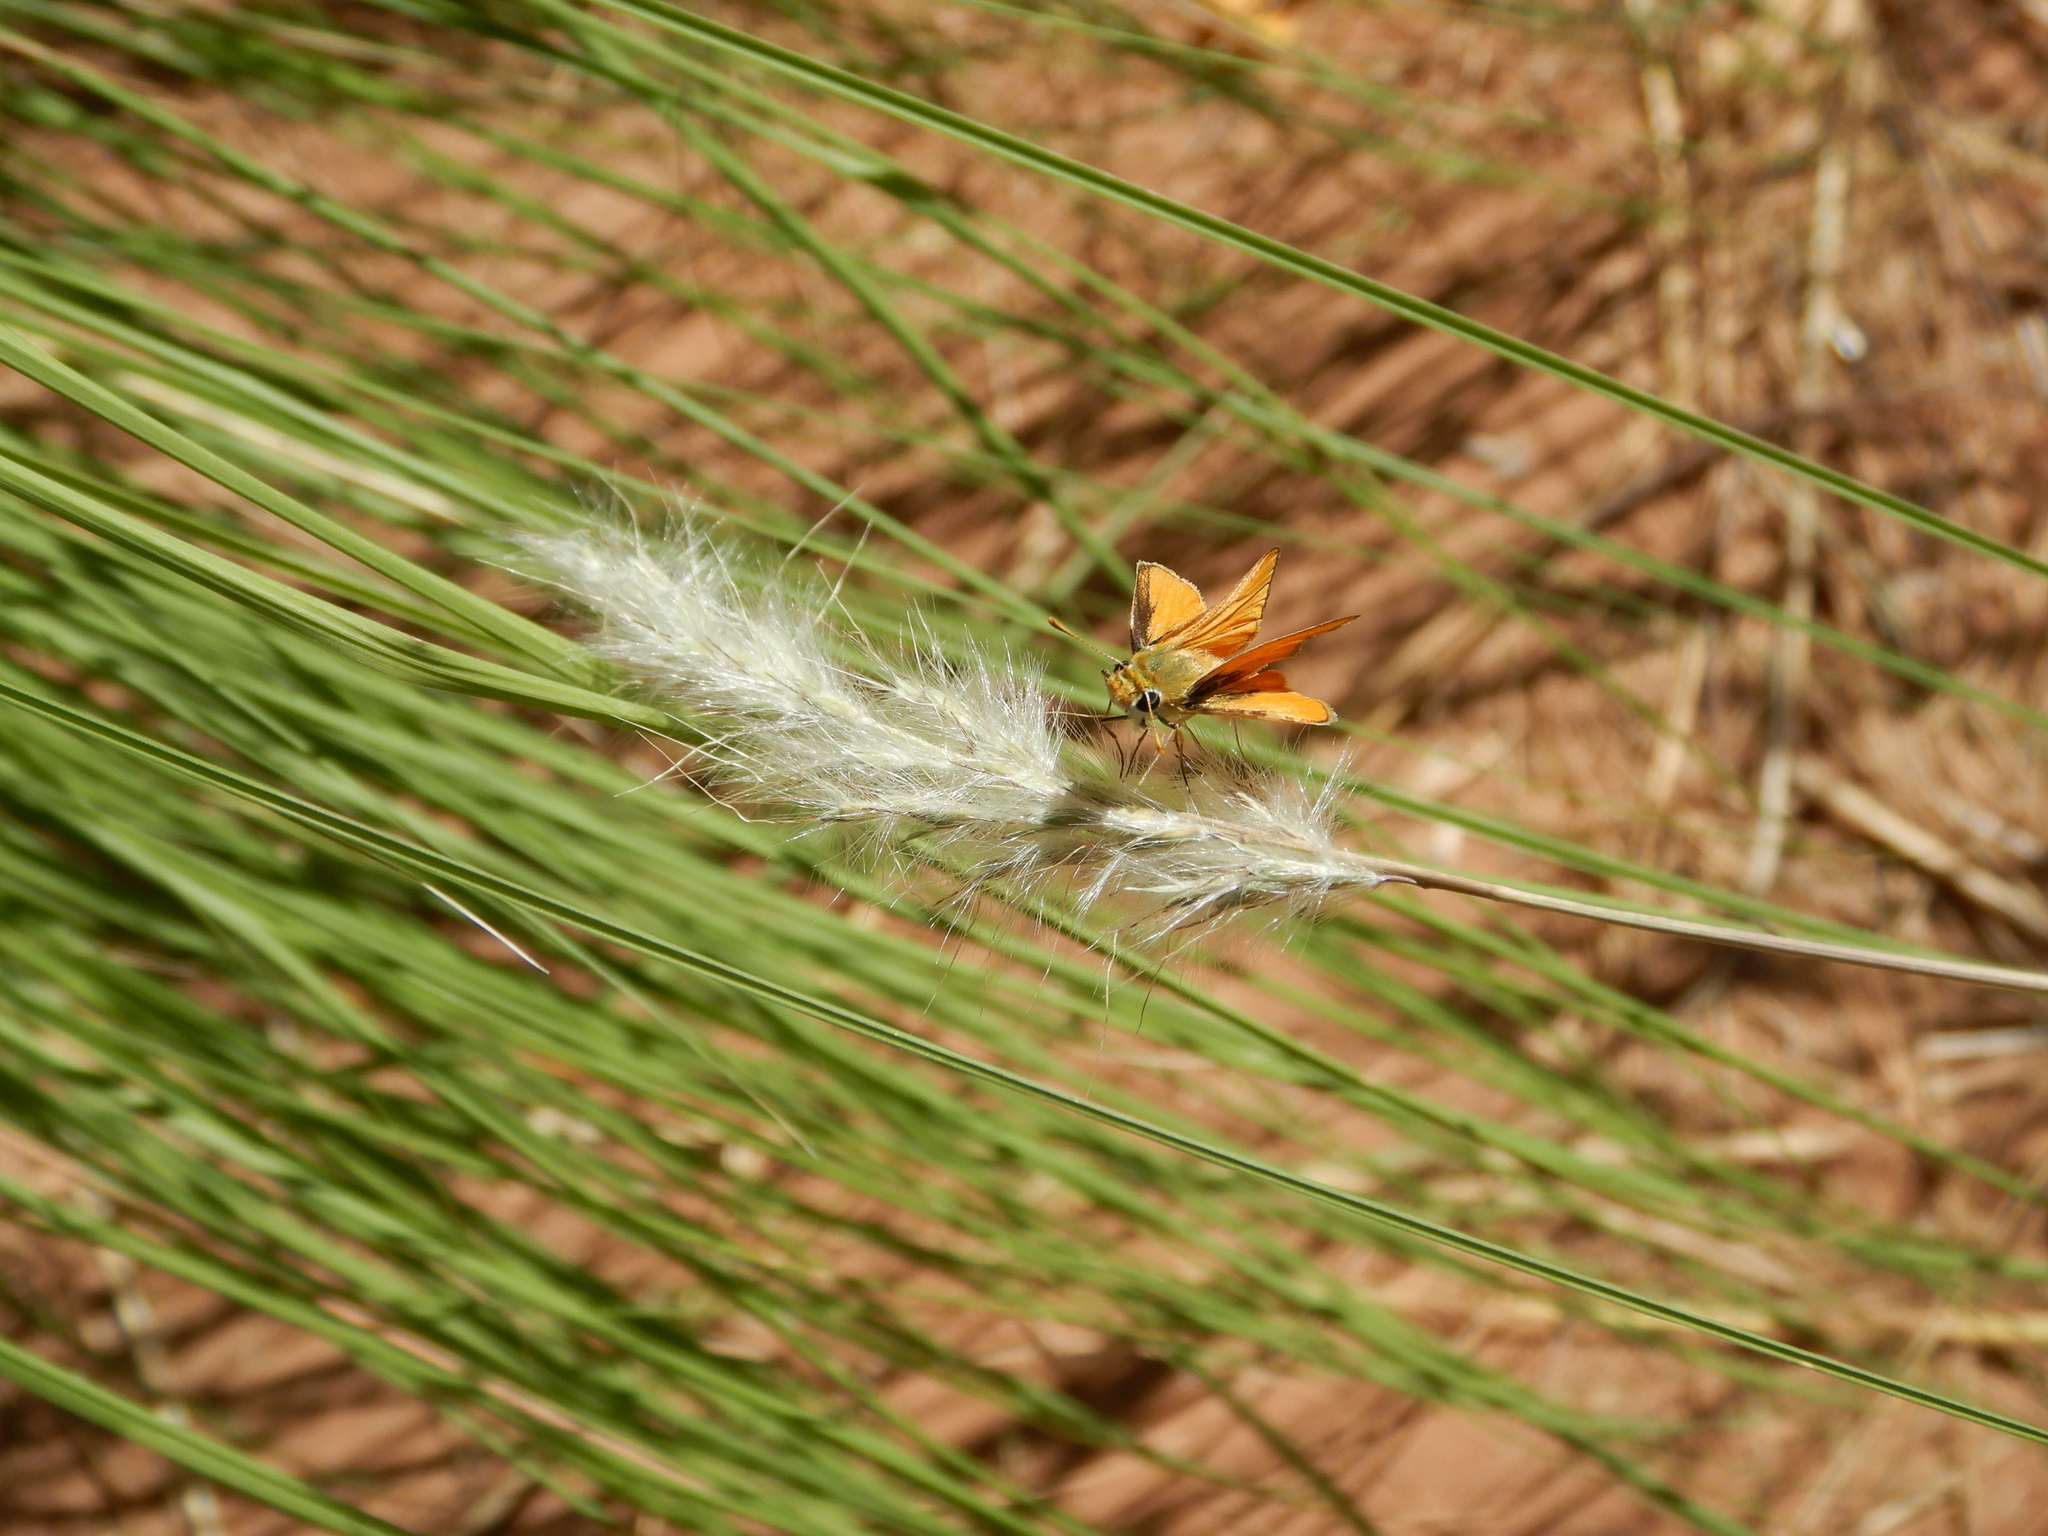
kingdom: Animalia
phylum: Arthropoda
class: Insecta
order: Lepidoptera
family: Hesperiidae
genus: Copaeodes
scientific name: Copaeodes aurantiaca
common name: Orange skipperling
